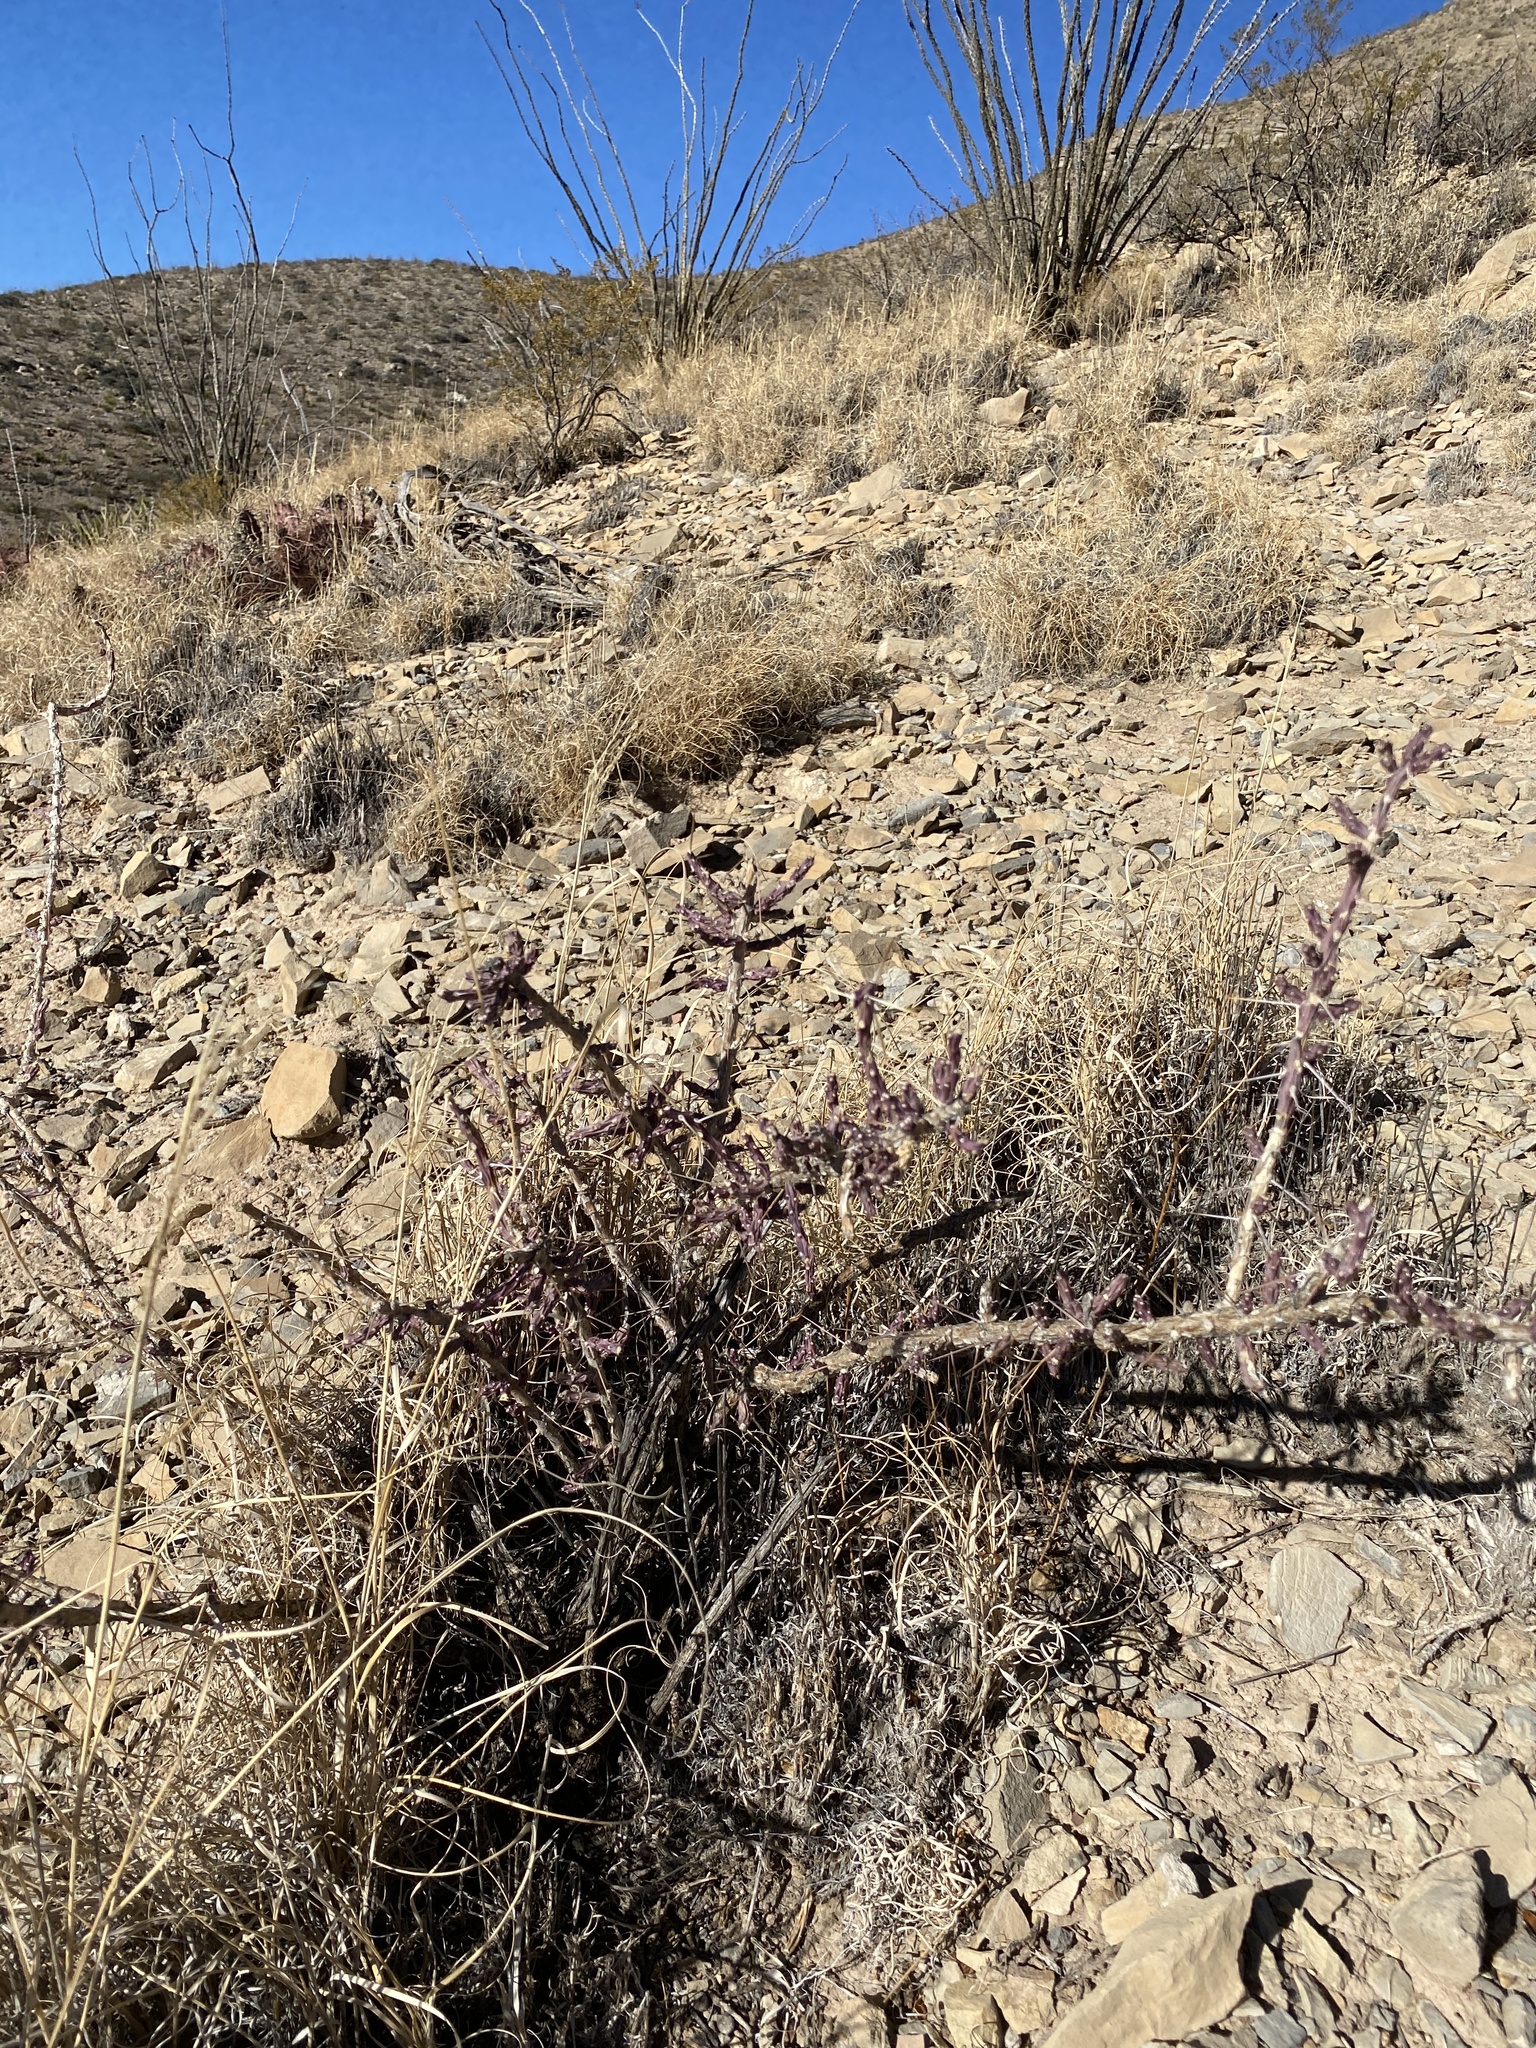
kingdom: Plantae
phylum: Tracheophyta
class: Magnoliopsida
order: Caryophyllales
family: Cactaceae
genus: Cylindropuntia
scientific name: Cylindropuntia leptocaulis
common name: Christmas cactus
